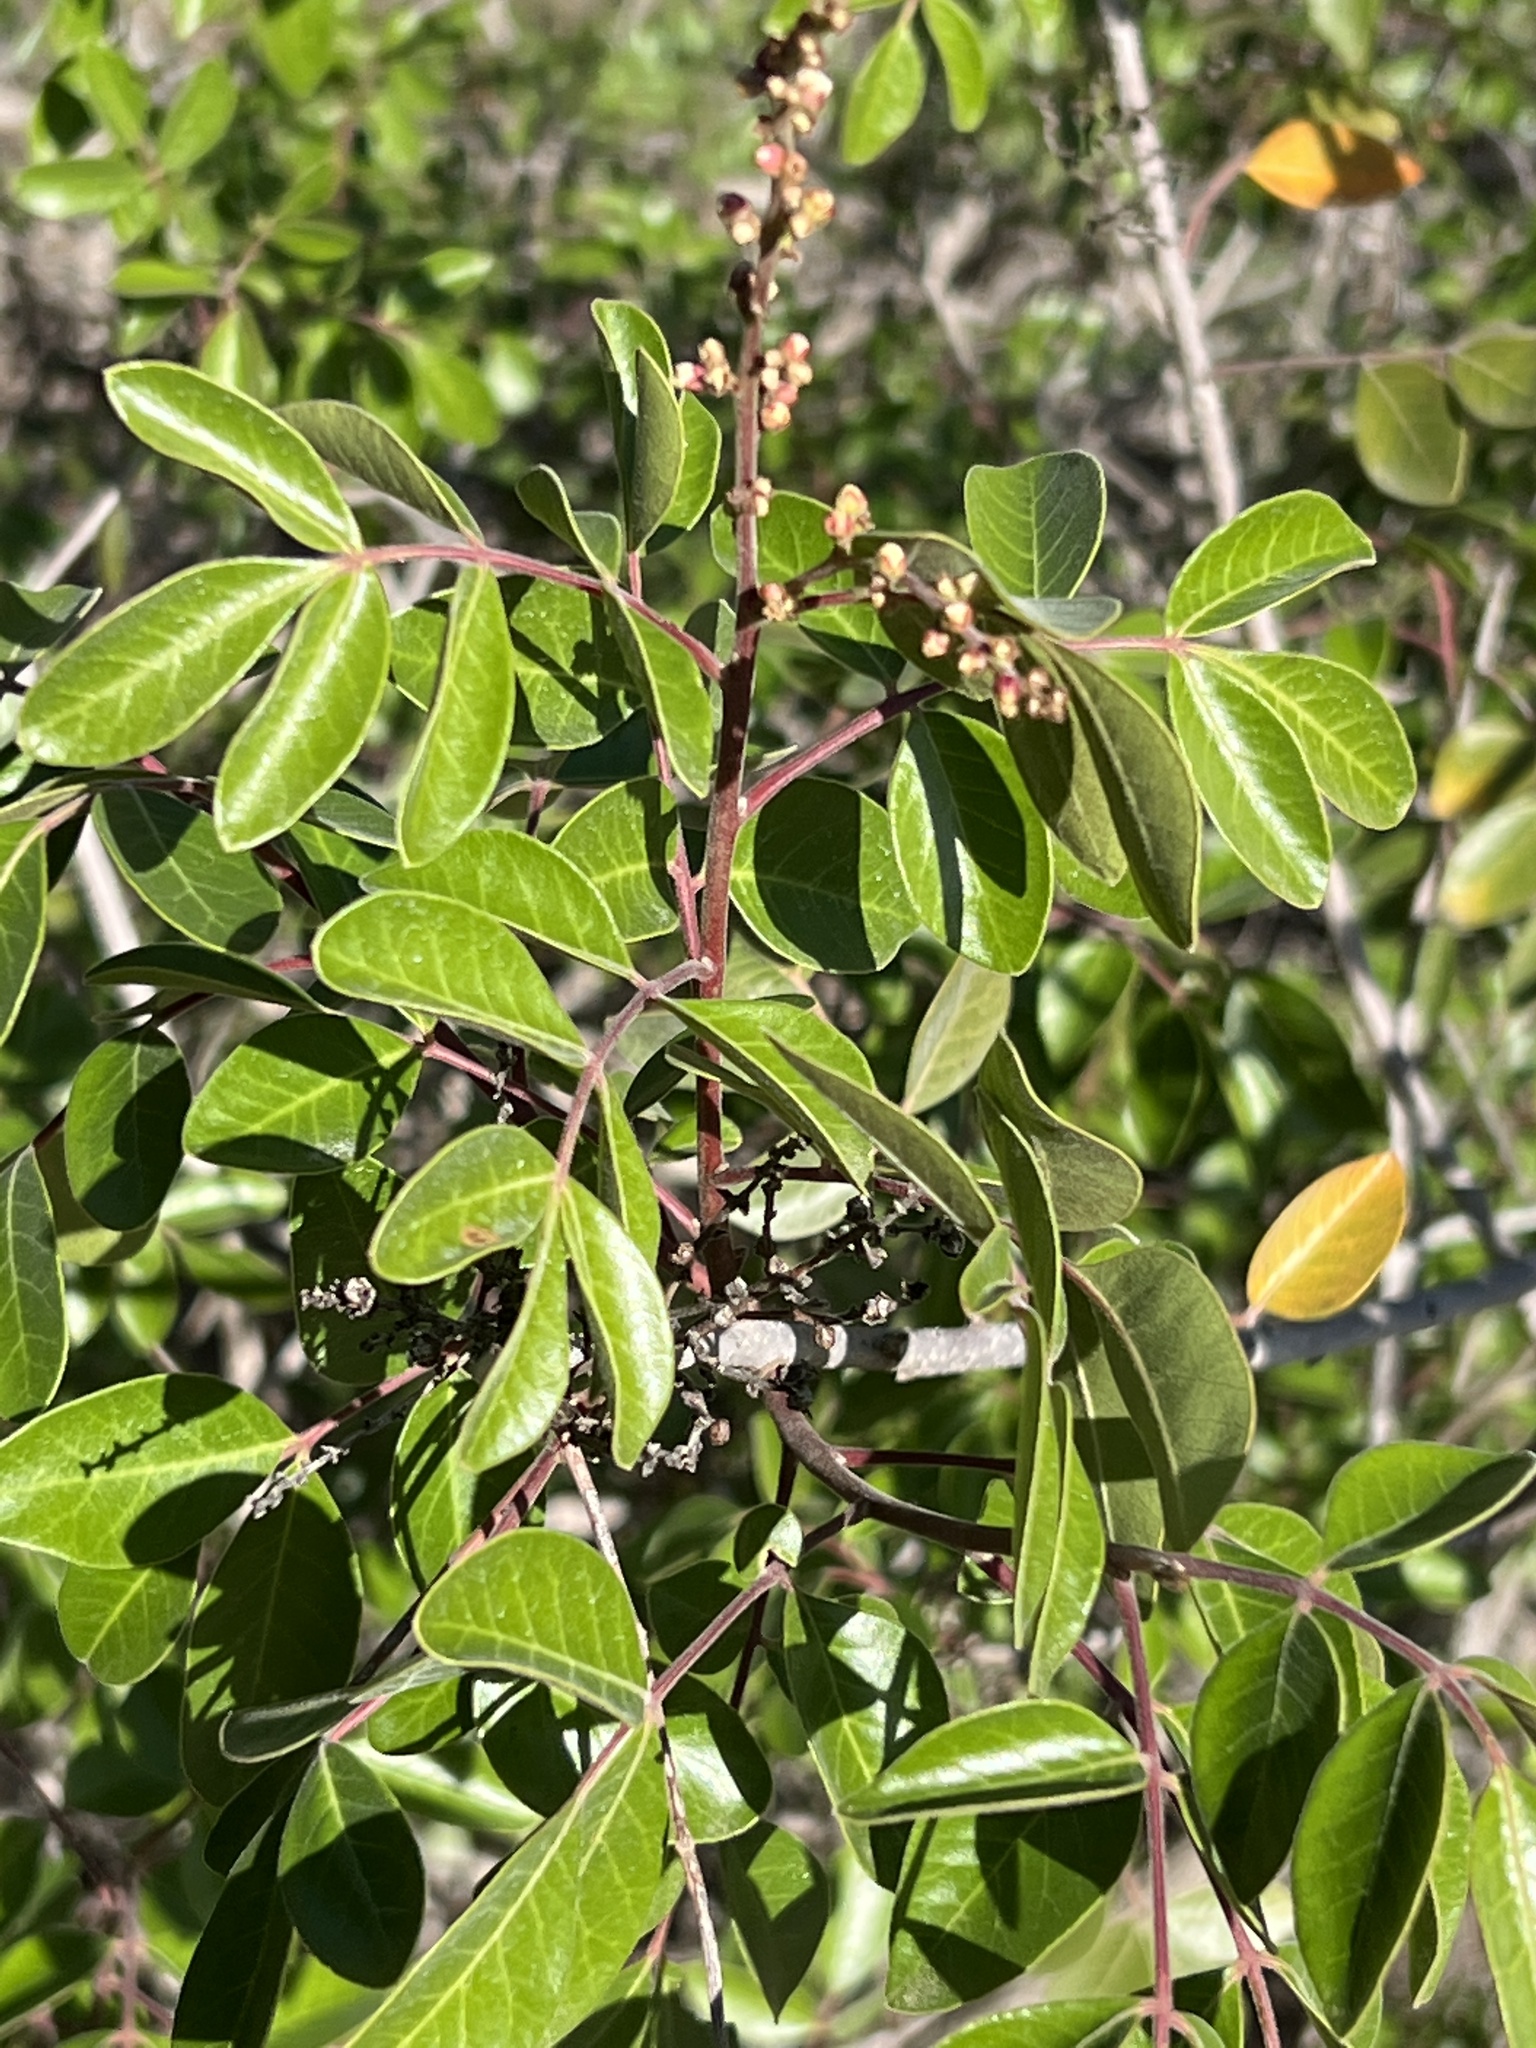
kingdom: Plantae
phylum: Tracheophyta
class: Magnoliopsida
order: Sapindales
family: Anacardiaceae
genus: Rhus
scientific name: Rhus virens
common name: Evergreen sumac
